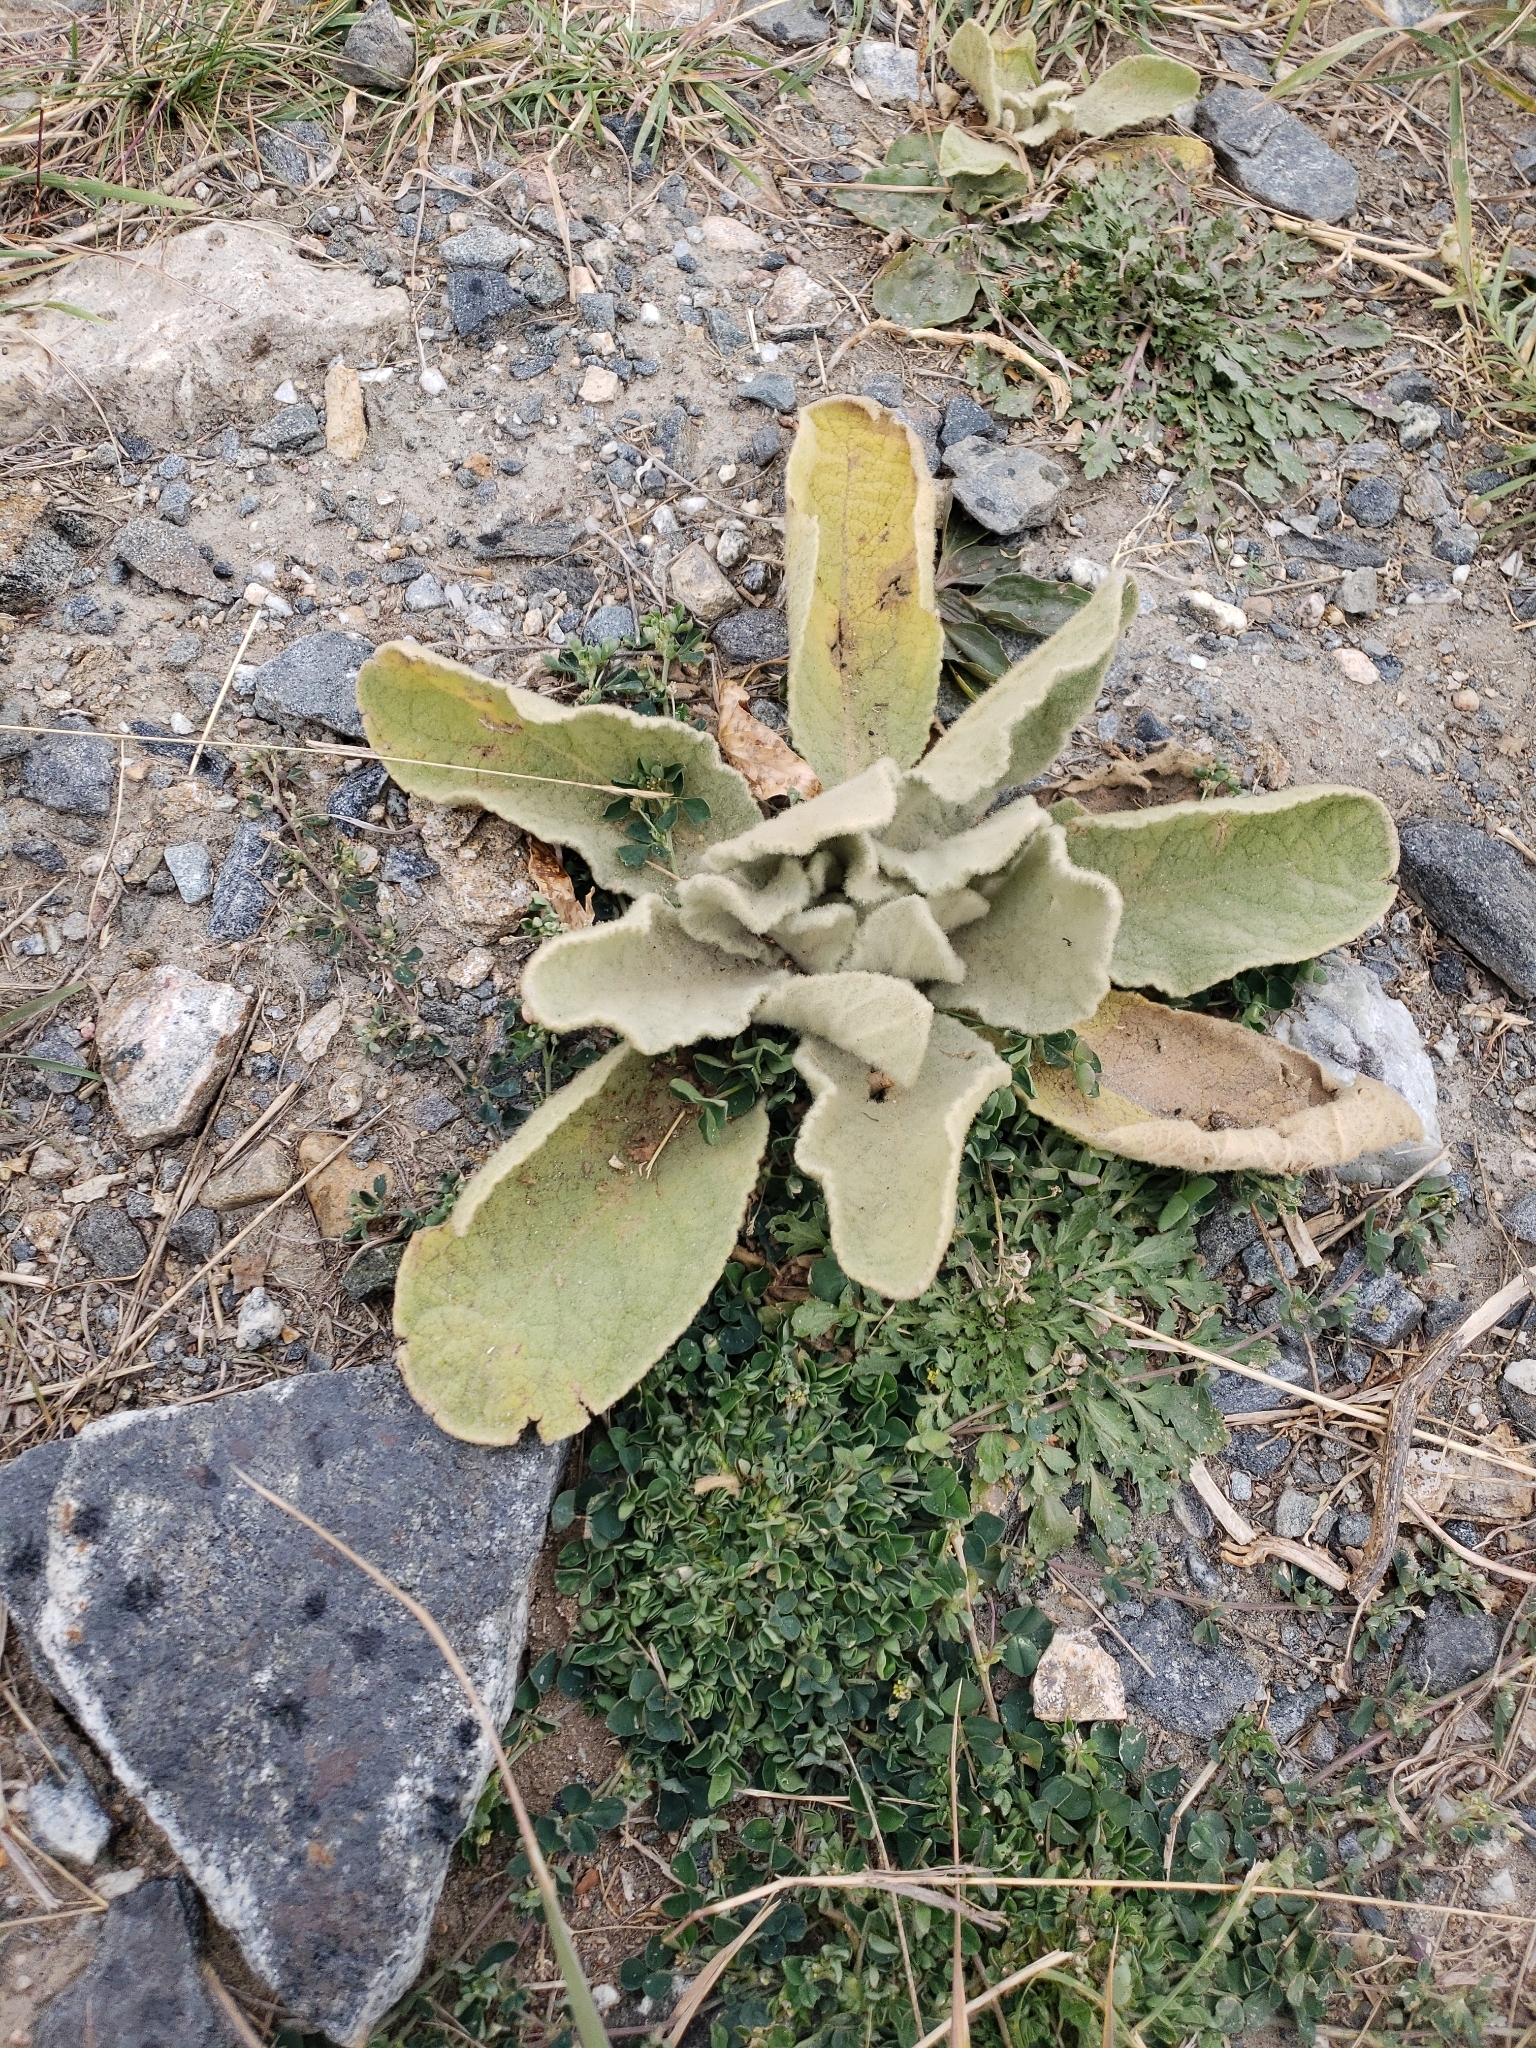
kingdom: Plantae
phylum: Tracheophyta
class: Magnoliopsida
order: Lamiales
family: Scrophulariaceae
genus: Verbascum
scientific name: Verbascum thapsus
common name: Common mullein
